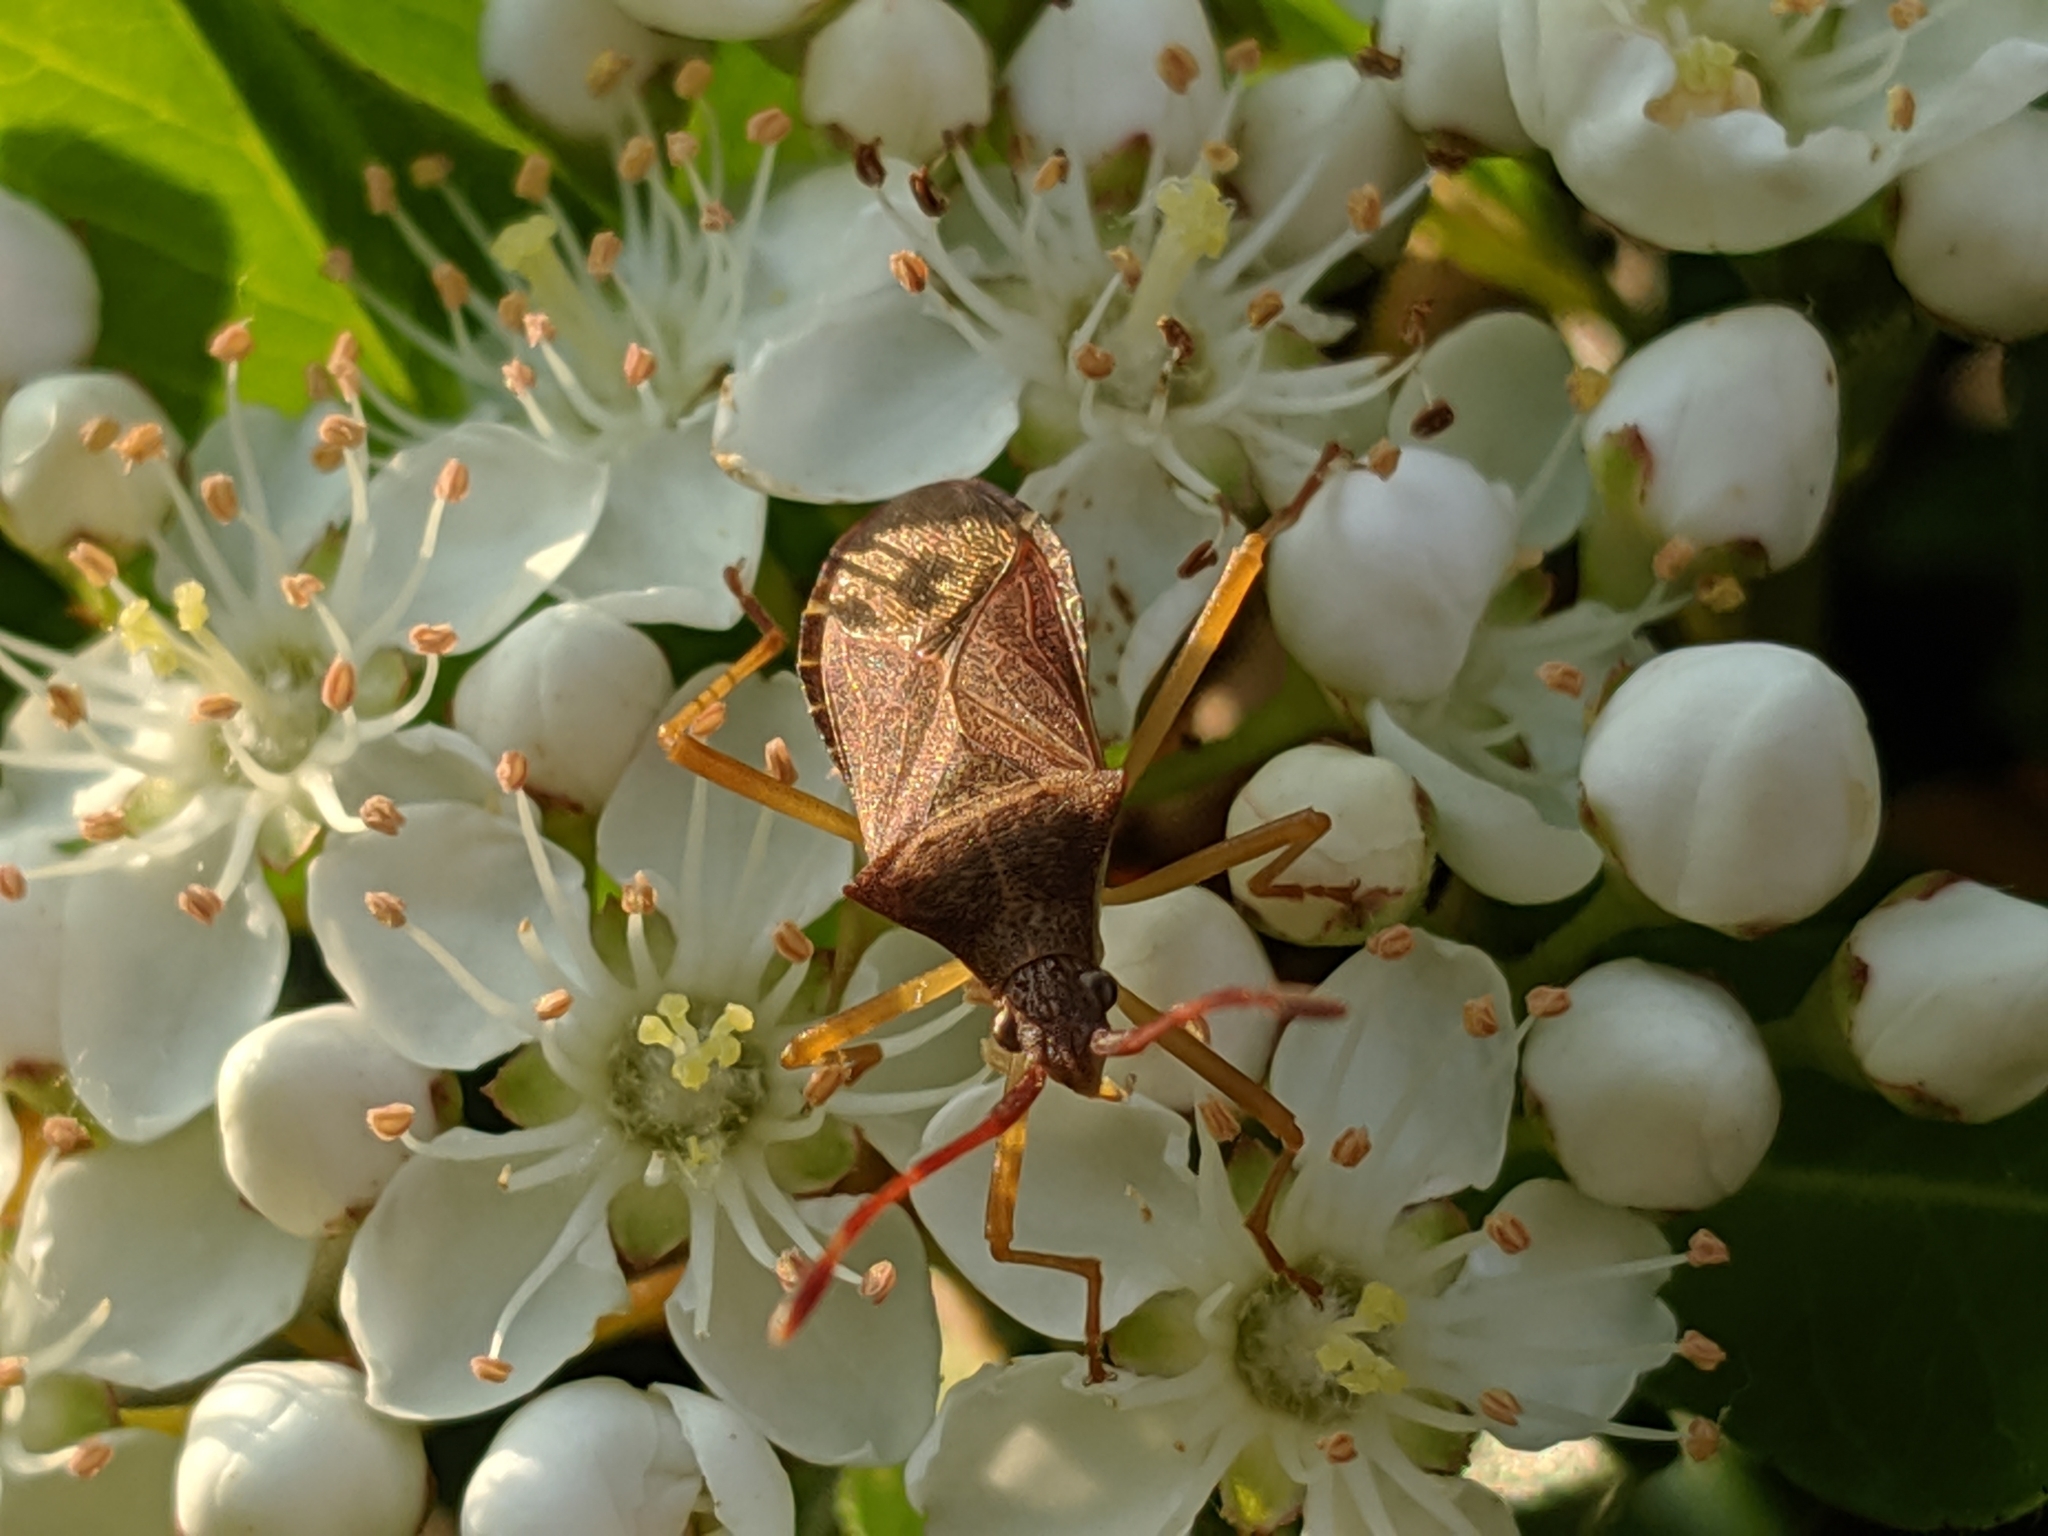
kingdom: Animalia
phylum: Arthropoda
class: Insecta
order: Hemiptera
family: Coreidae
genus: Gonocerus
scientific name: Gonocerus acuteangulatus
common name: Box bug
